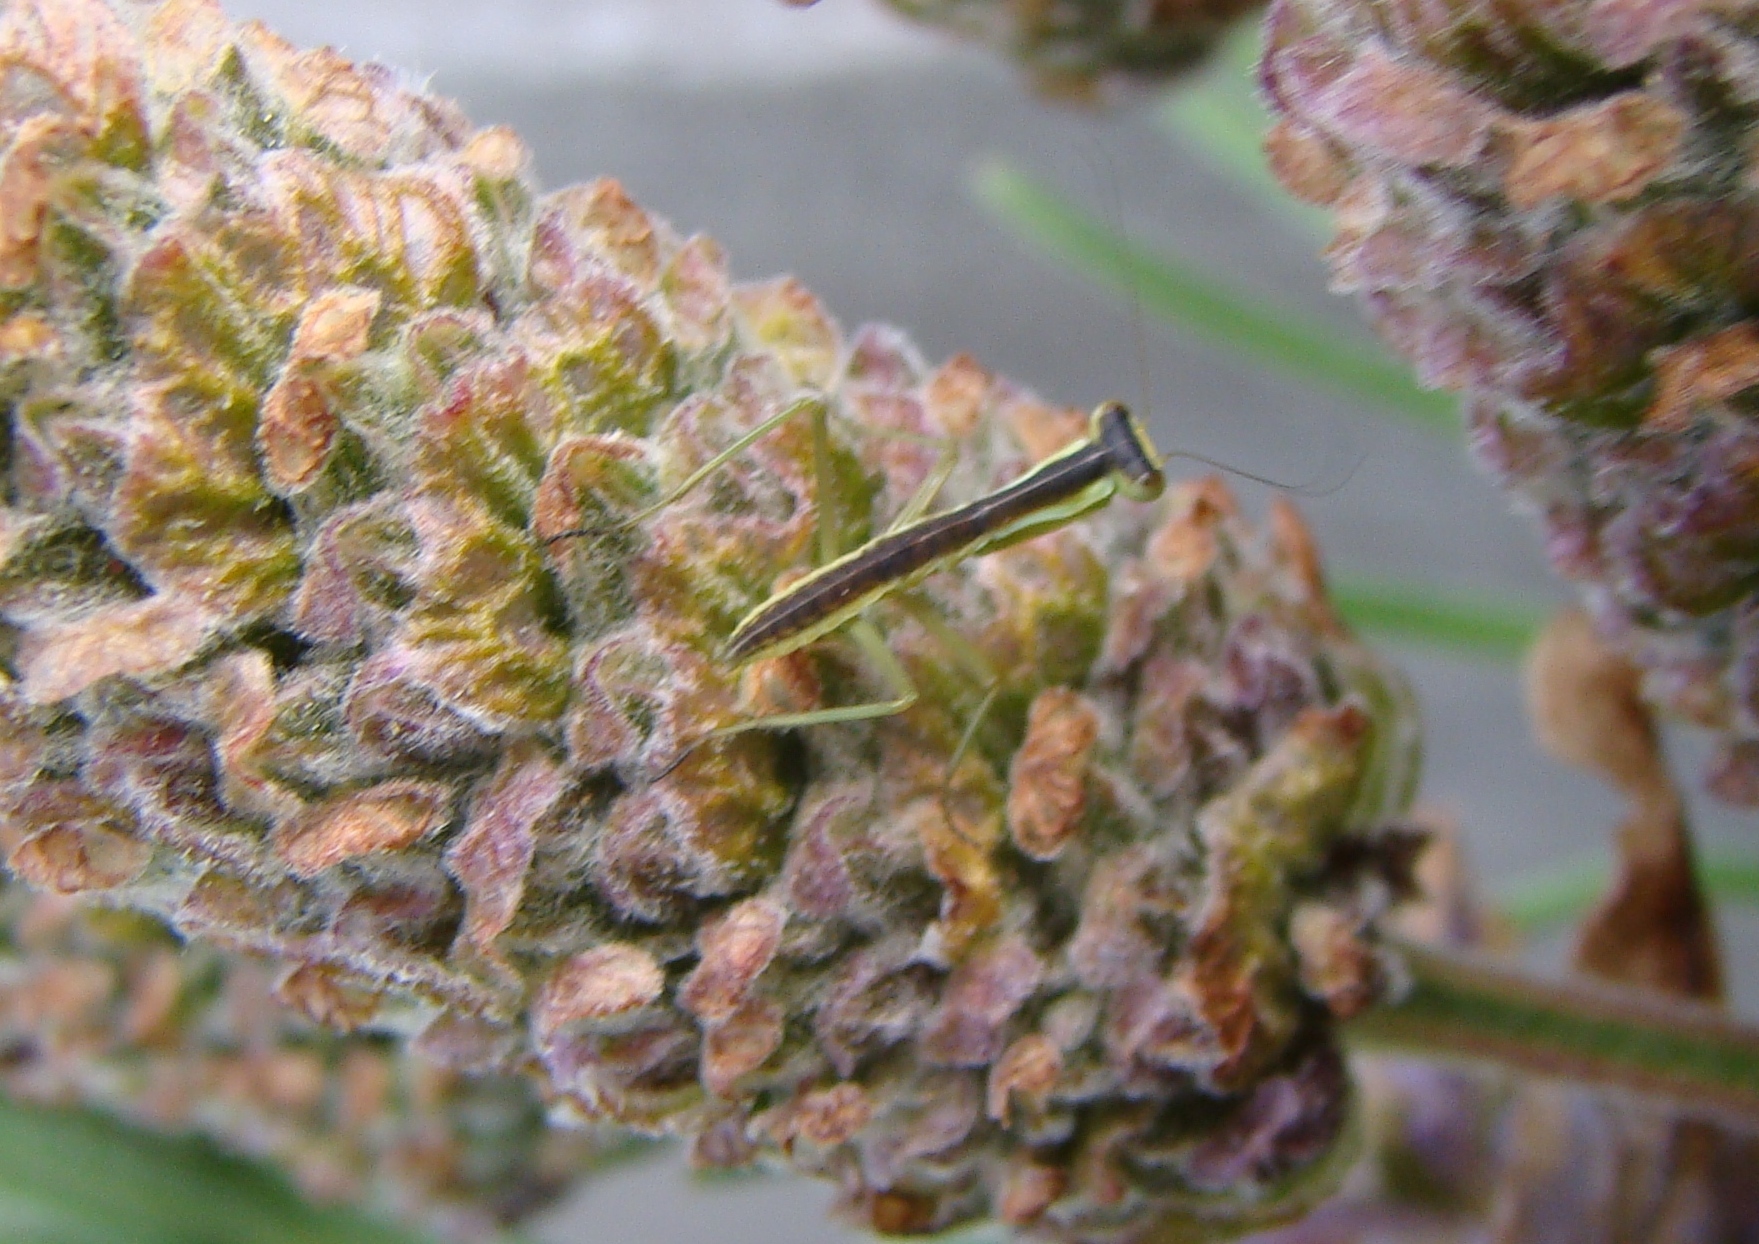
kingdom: Animalia
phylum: Arthropoda
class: Insecta
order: Mantodea
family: Mantidae
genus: Orthodera
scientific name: Orthodera novaezealandiae
